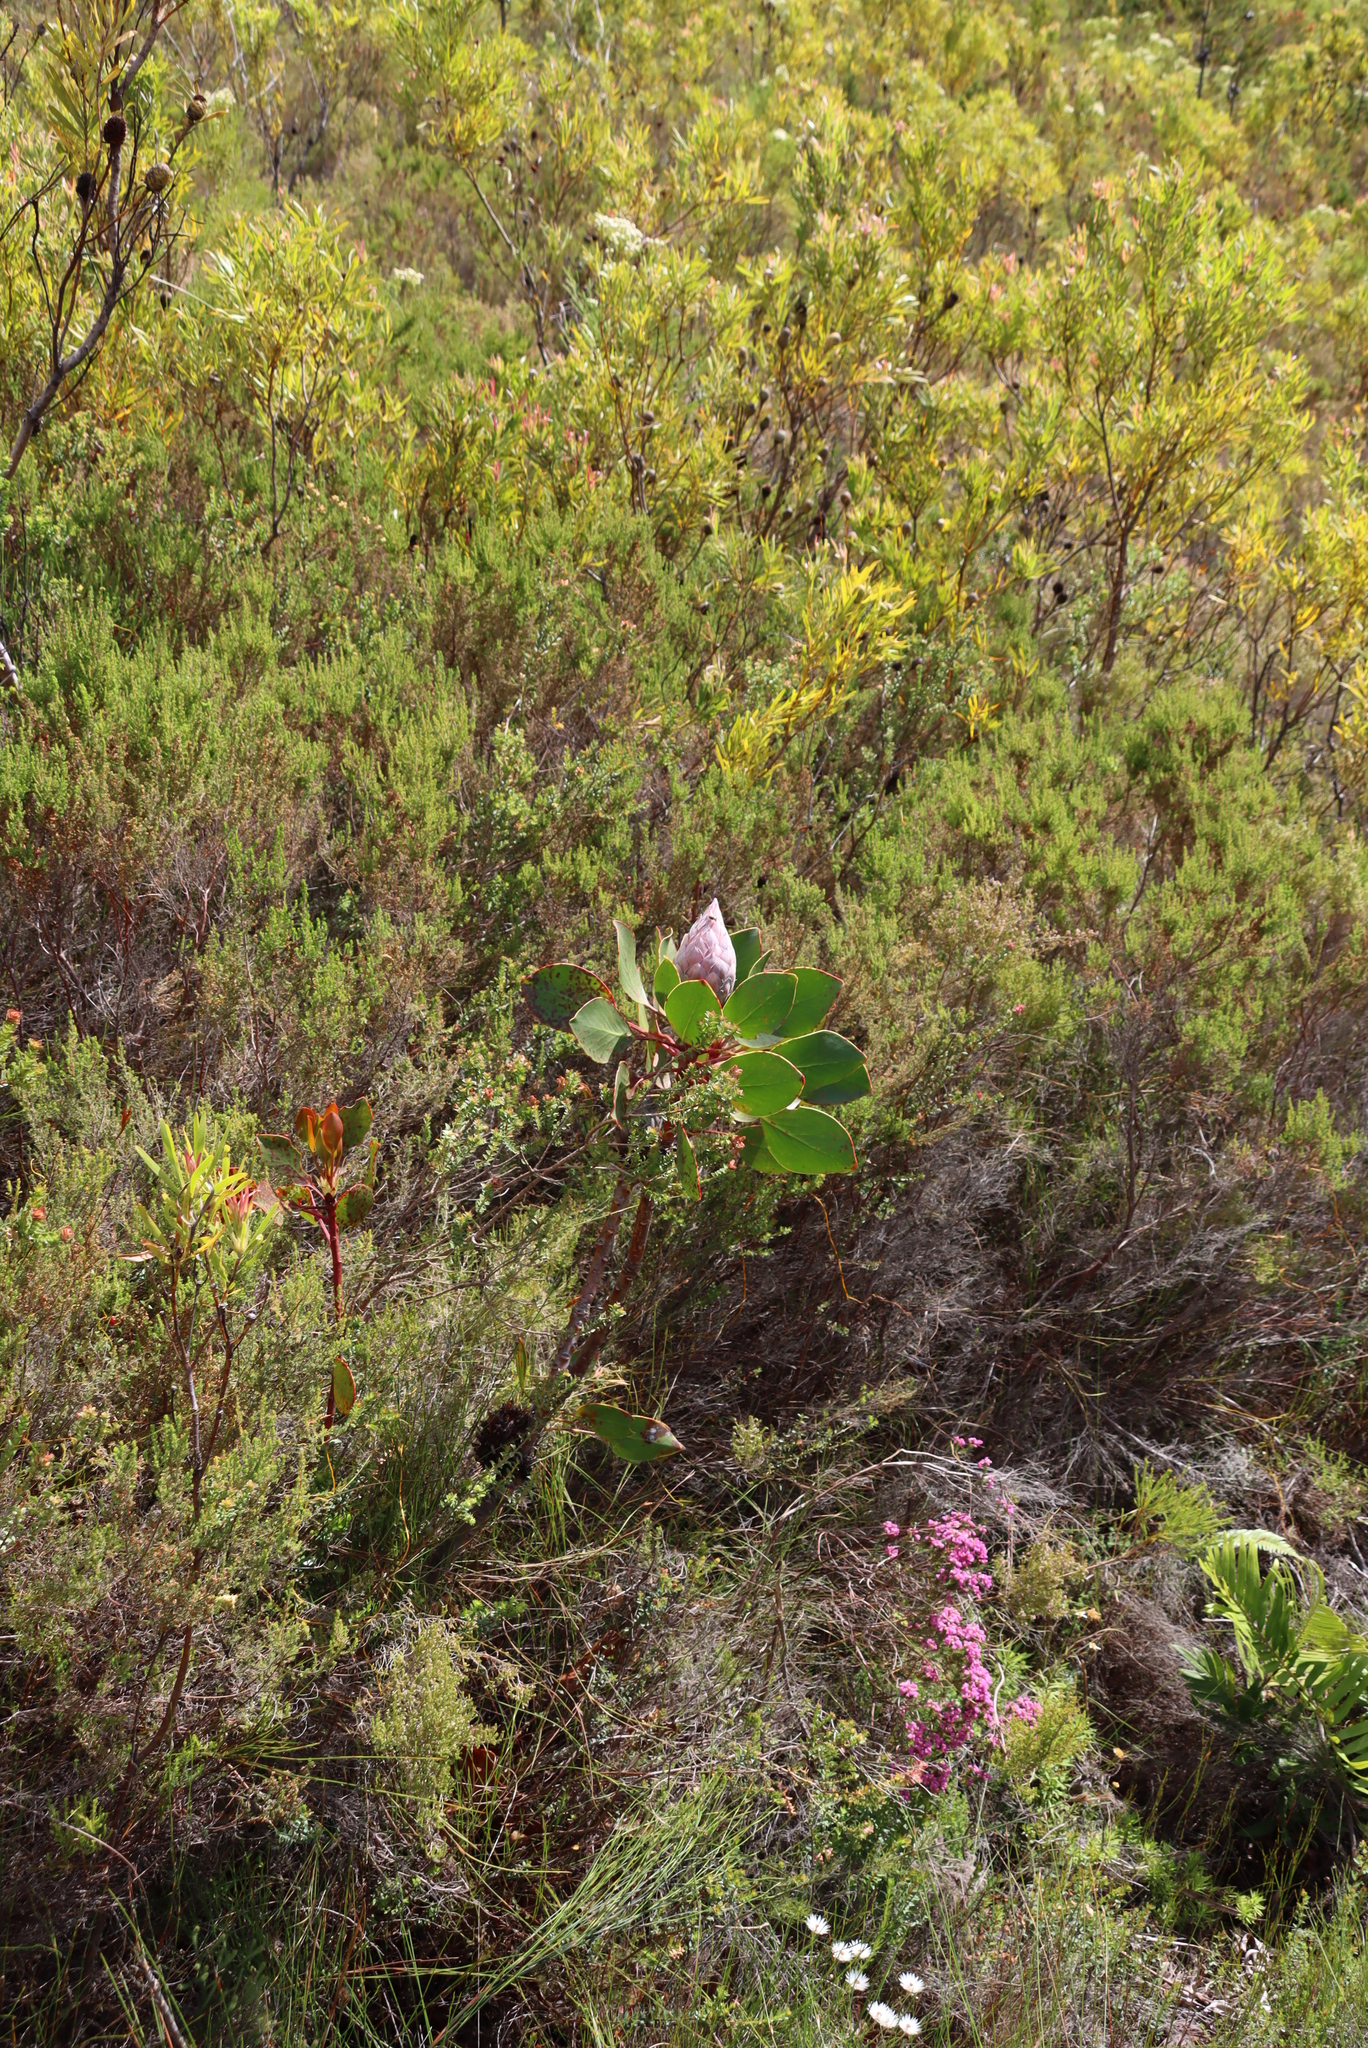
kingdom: Plantae
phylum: Tracheophyta
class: Magnoliopsida
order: Proteales
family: Proteaceae
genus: Protea
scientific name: Protea cynaroides
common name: King protea
